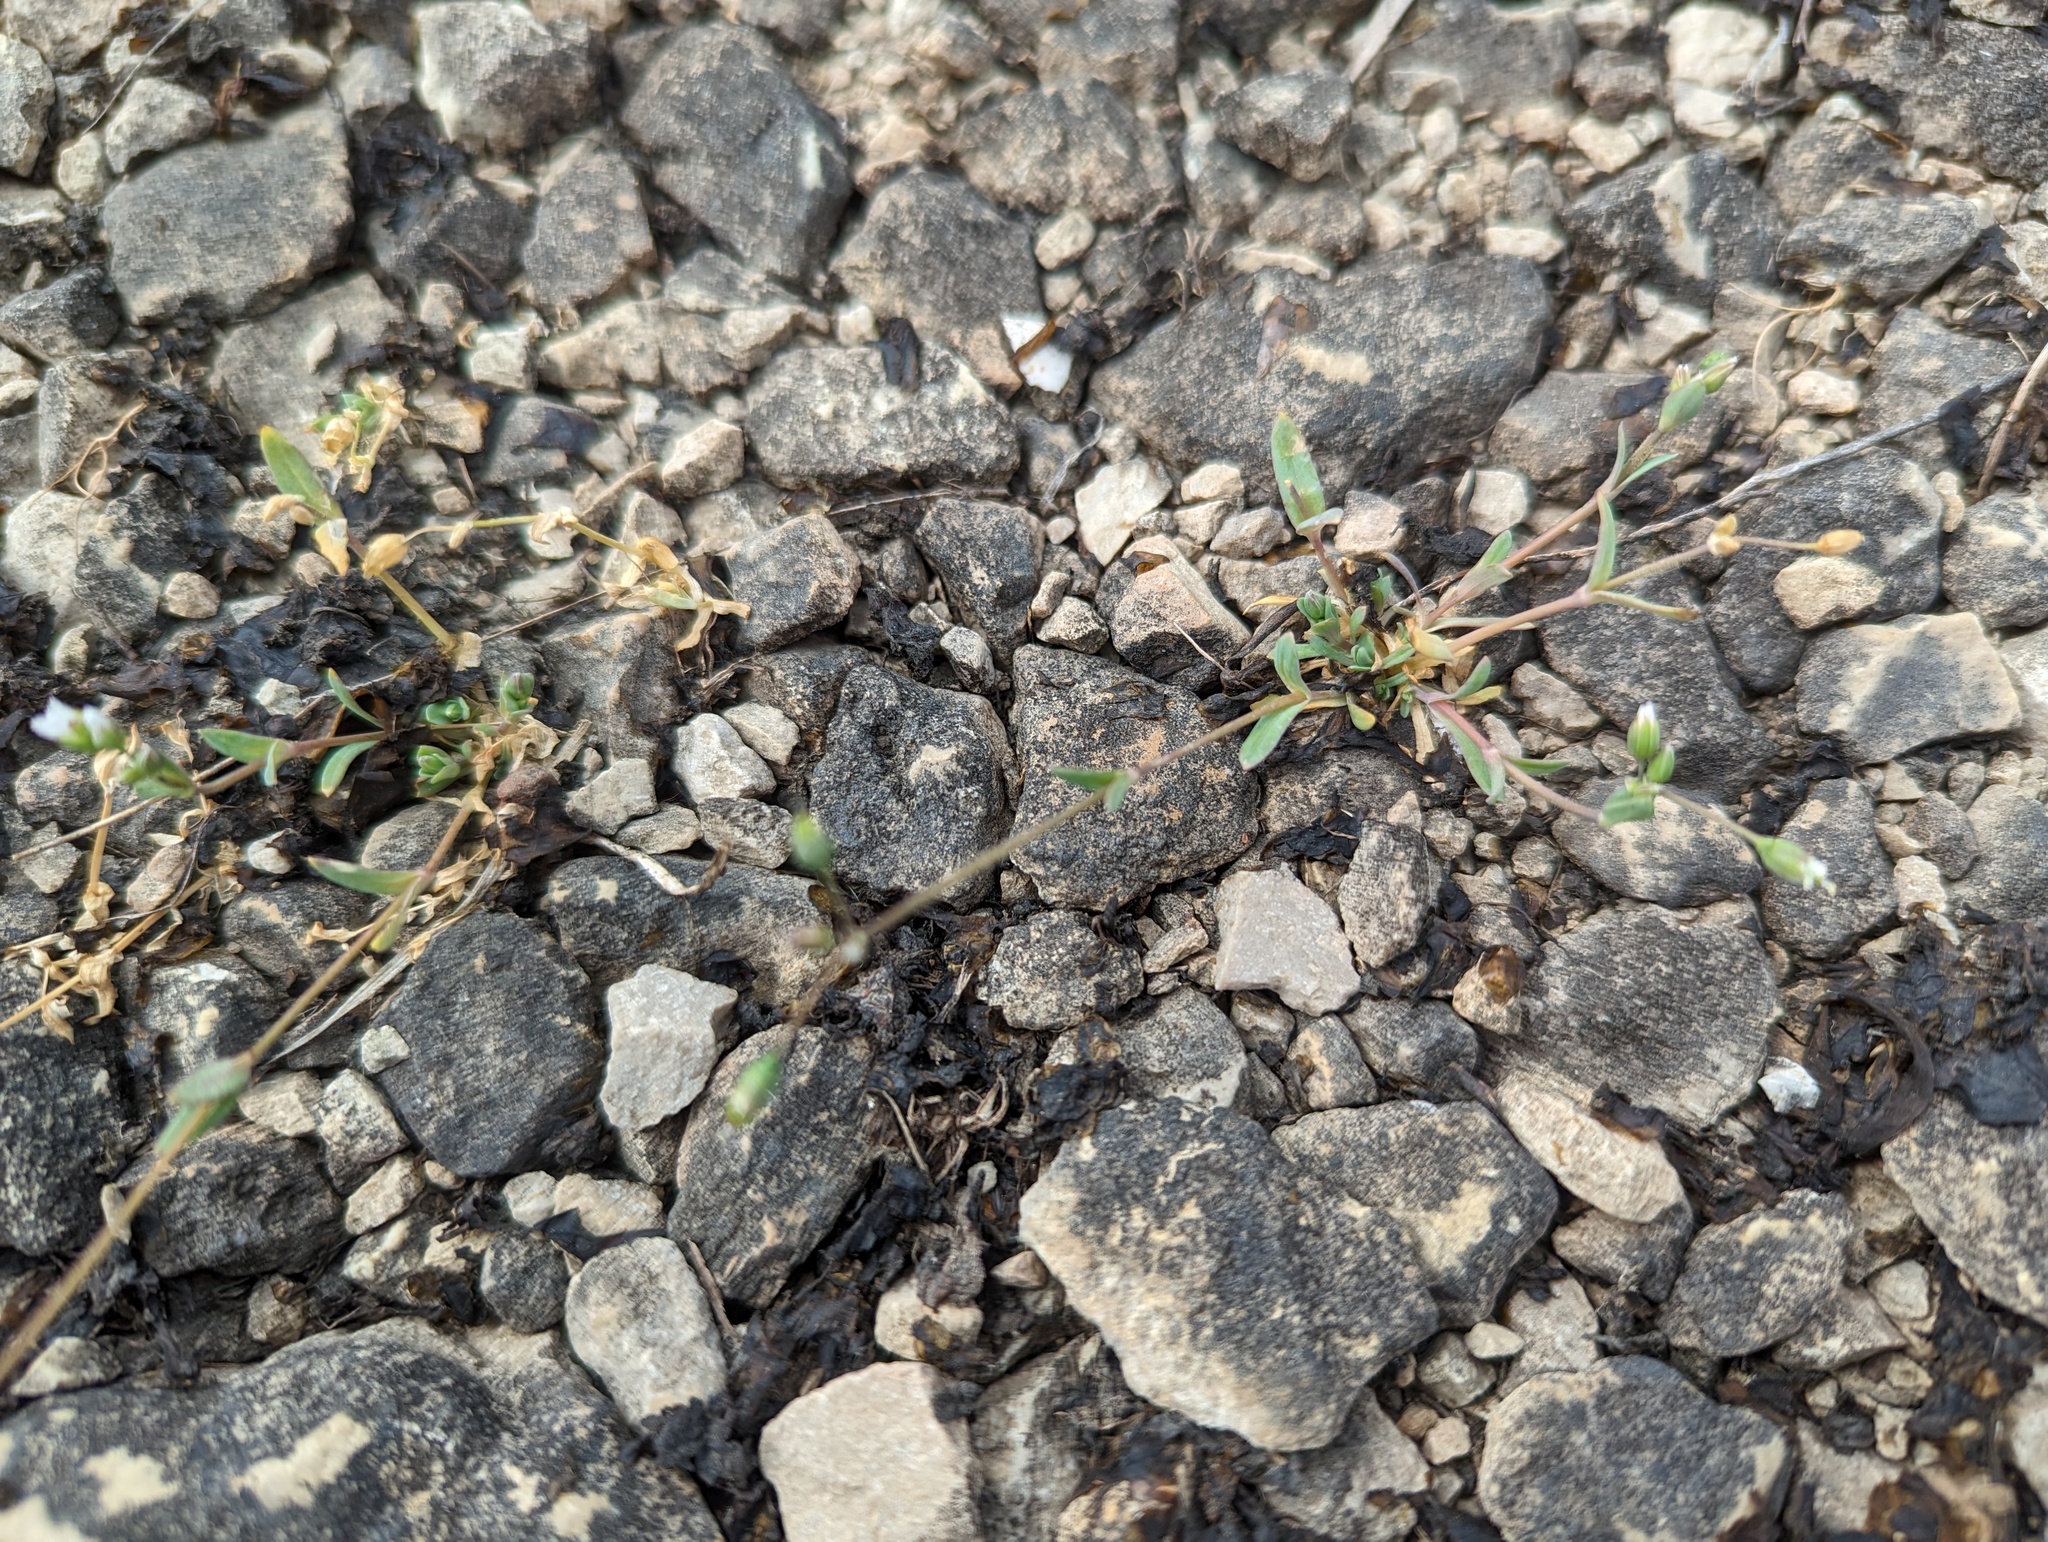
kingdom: Plantae
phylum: Tracheophyta
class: Magnoliopsida
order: Caryophyllales
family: Caryophyllaceae
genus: Holosteum
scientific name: Holosteum umbellatum
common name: Jagged chickweed
